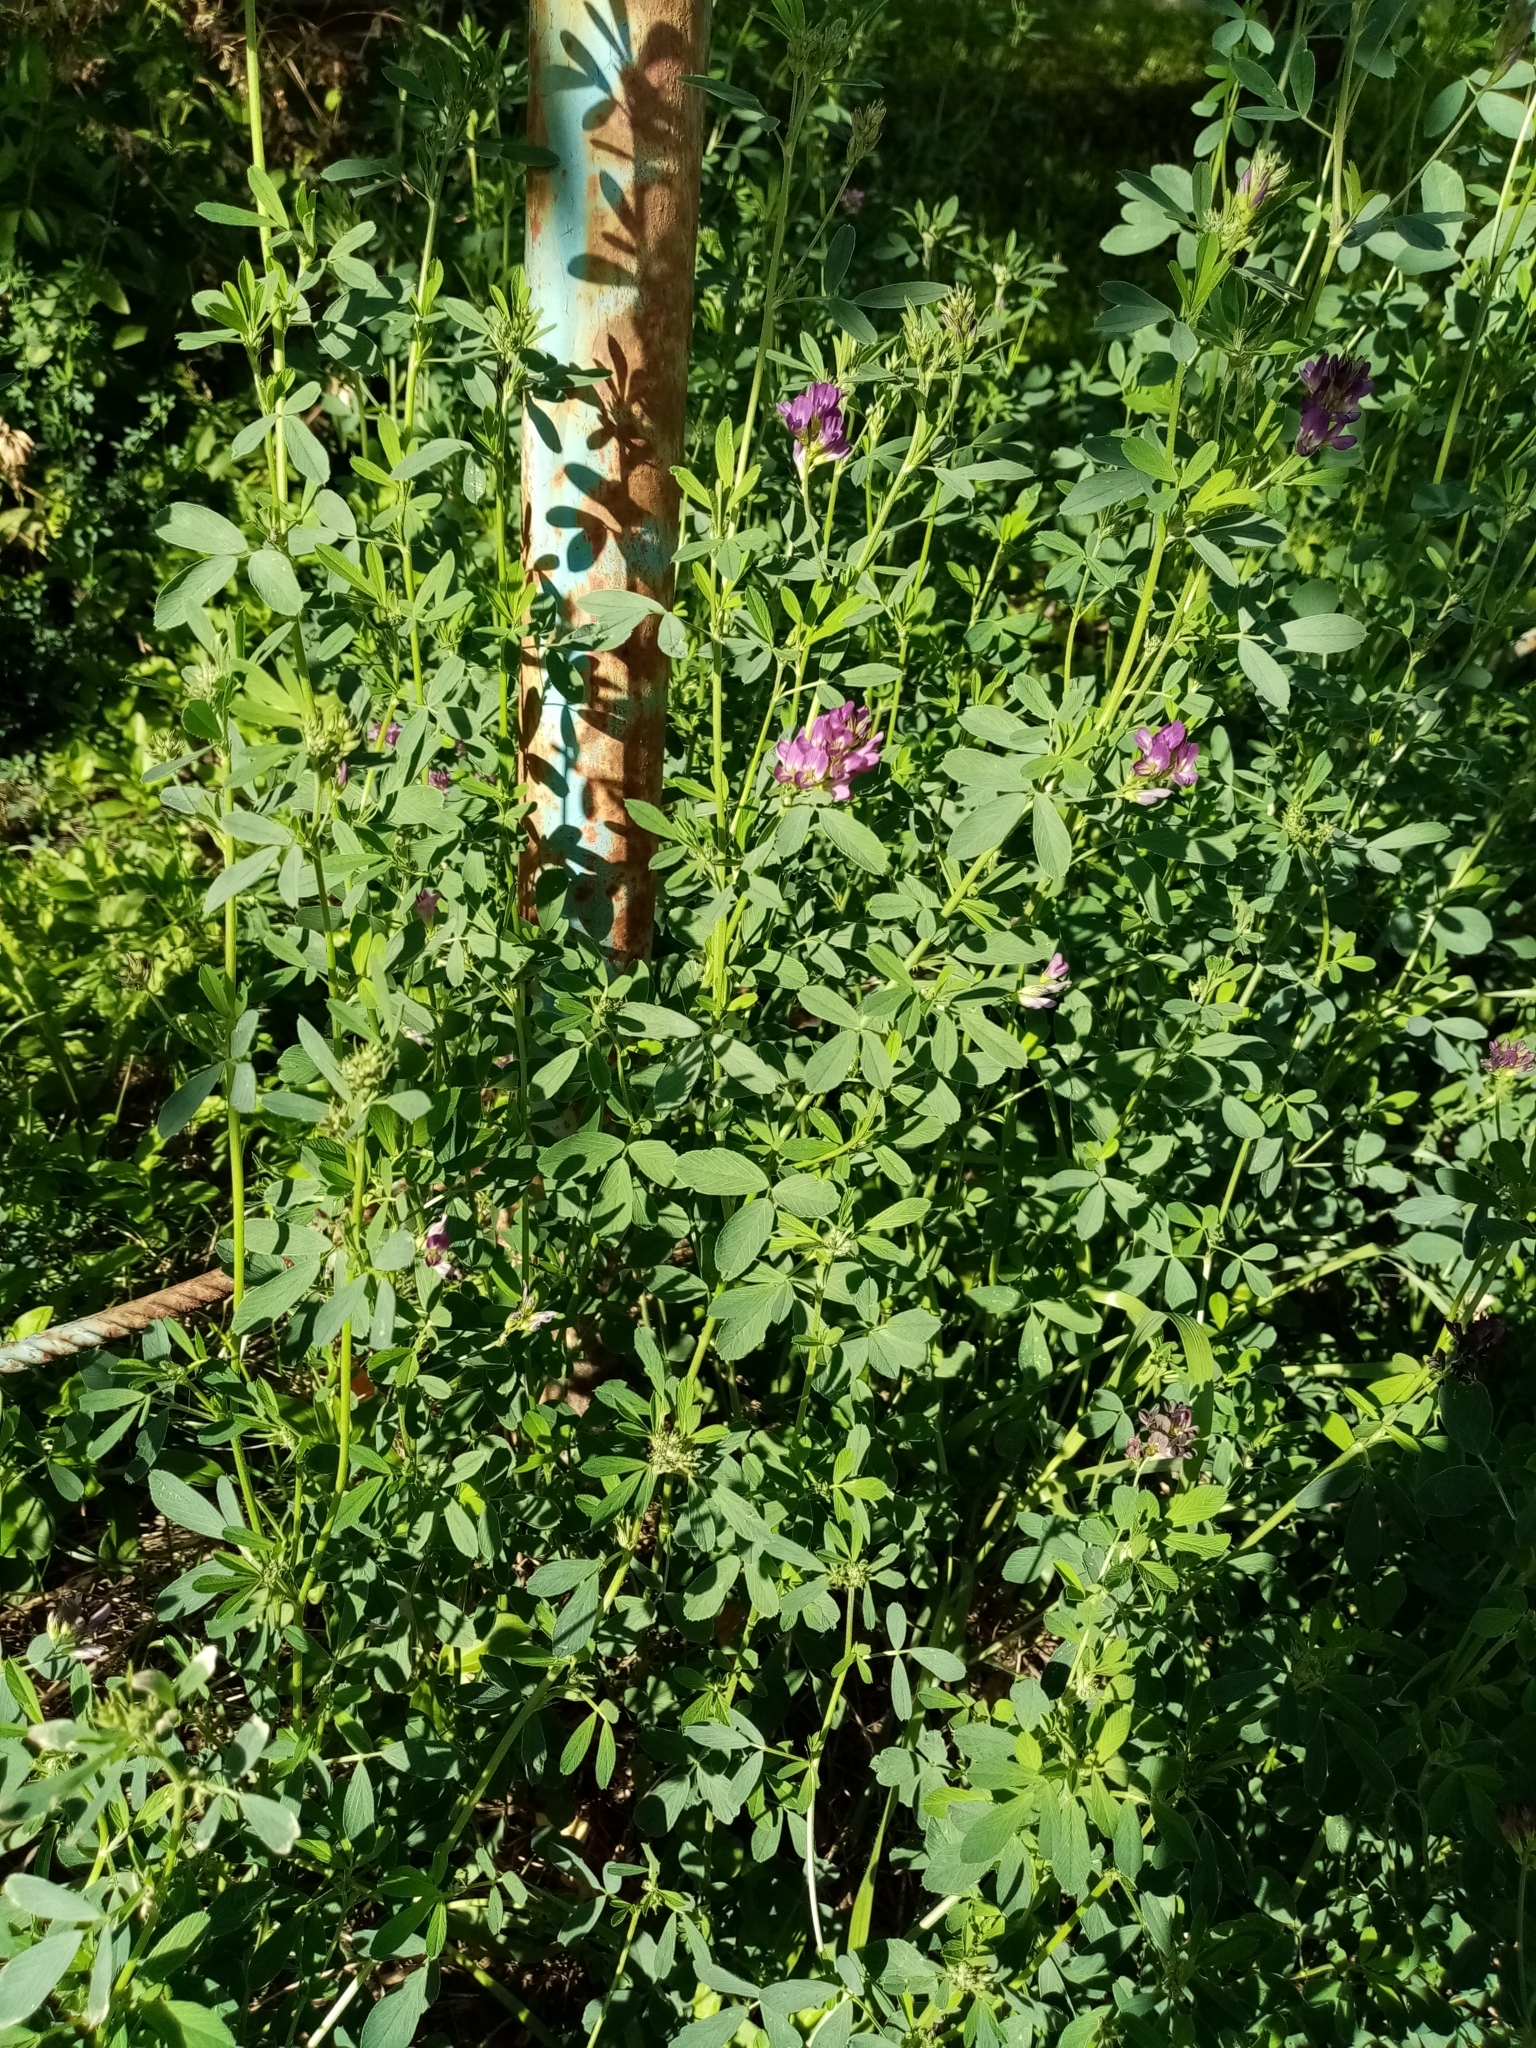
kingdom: Plantae
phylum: Tracheophyta
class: Magnoliopsida
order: Fabales
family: Fabaceae
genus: Medicago
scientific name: Medicago varia
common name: Sand lucerne
